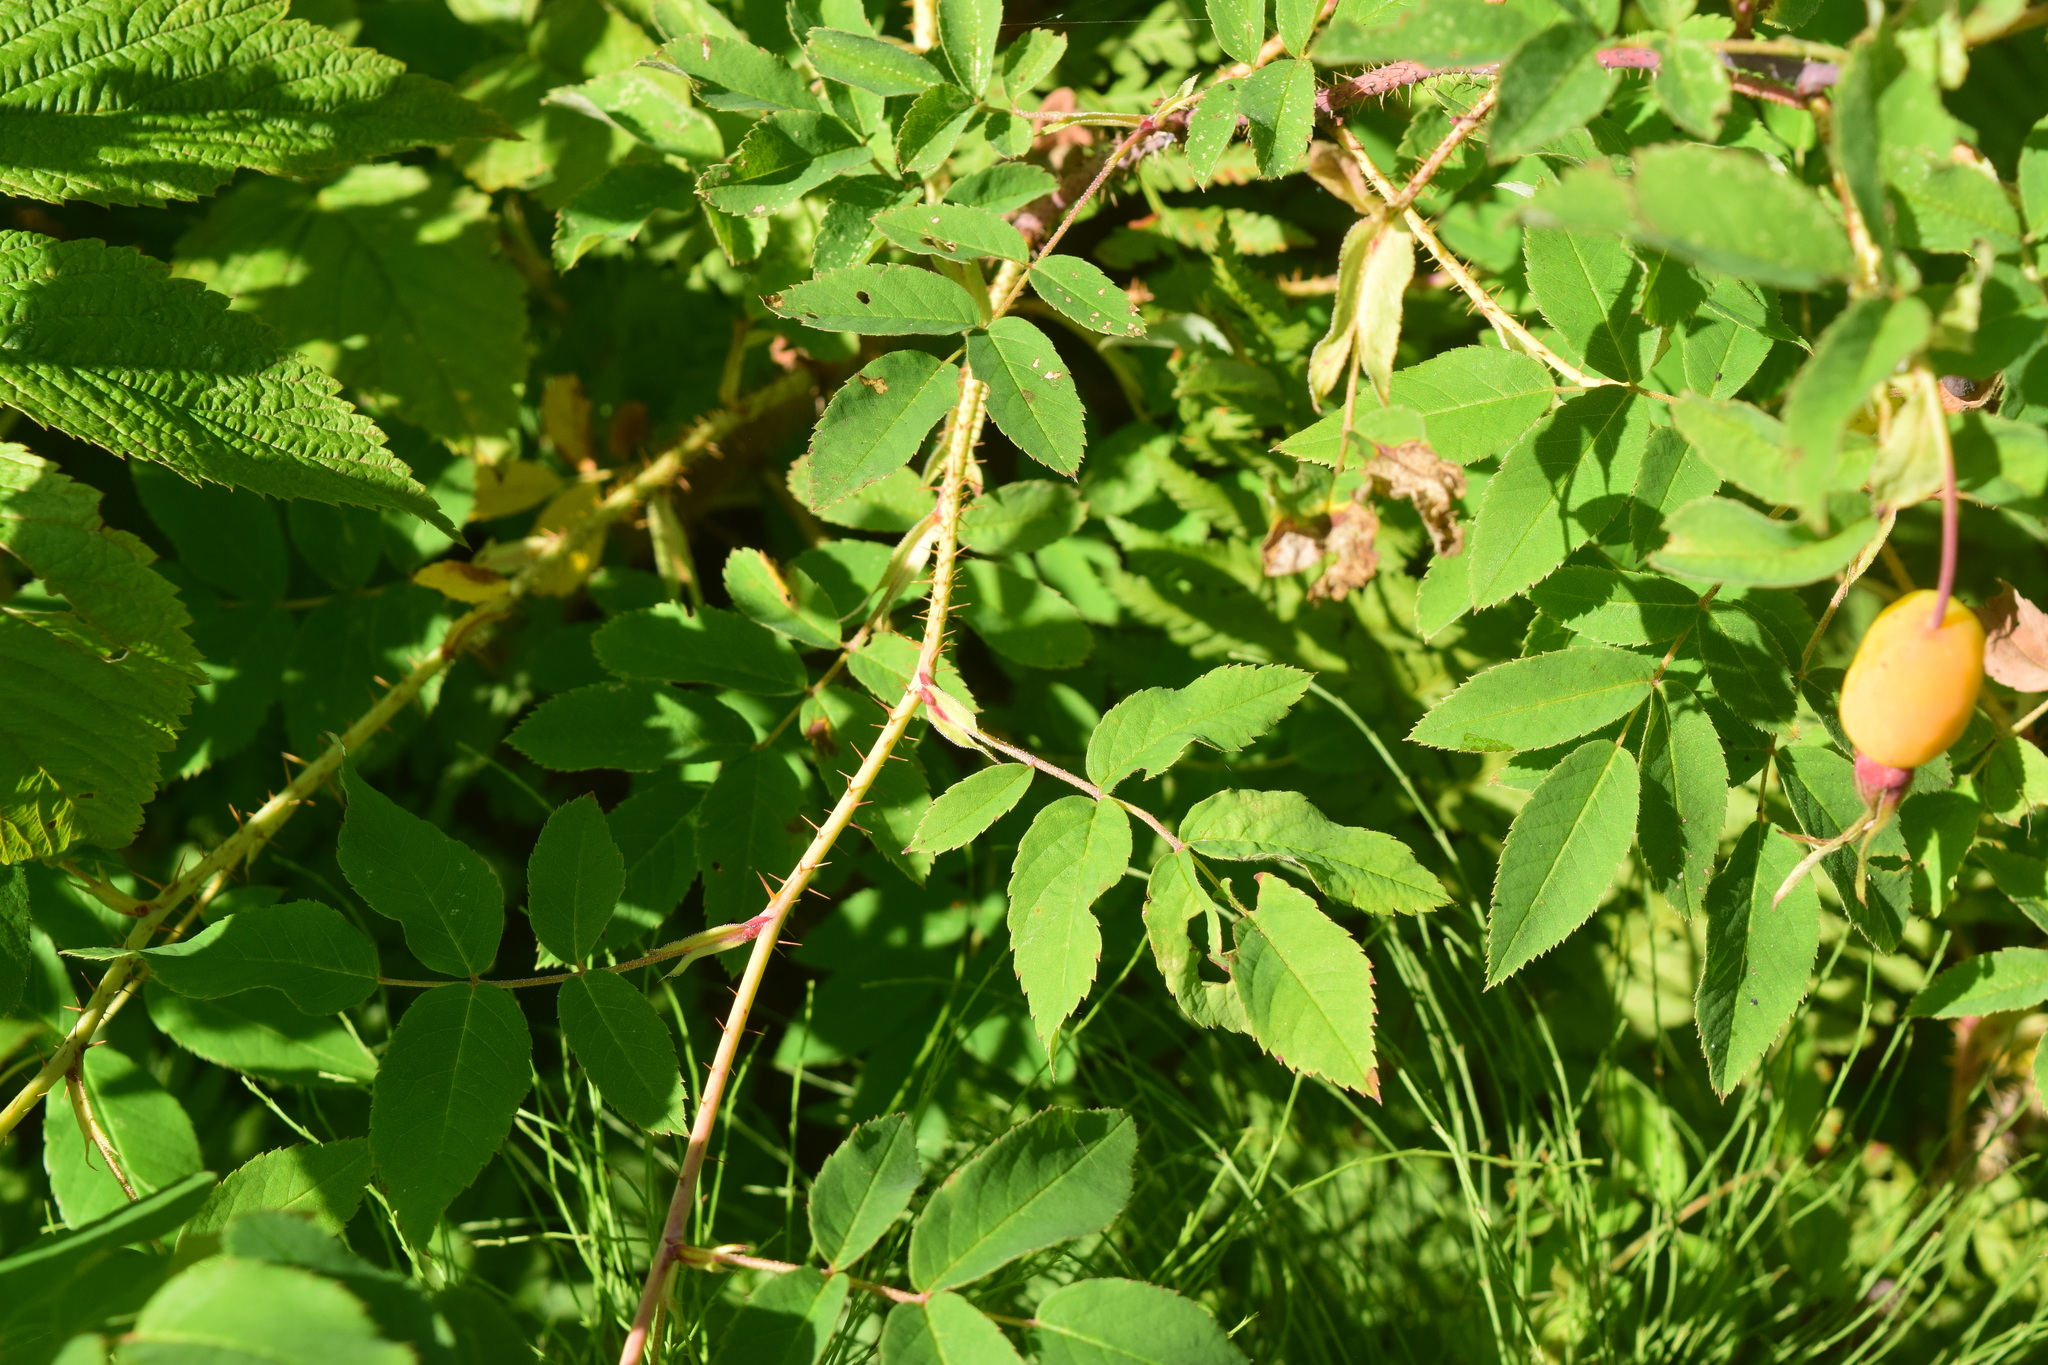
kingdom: Plantae
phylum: Tracheophyta
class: Magnoliopsida
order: Rosales
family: Rosaceae
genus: Rosa
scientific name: Rosa acicularis
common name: Prickly rose
